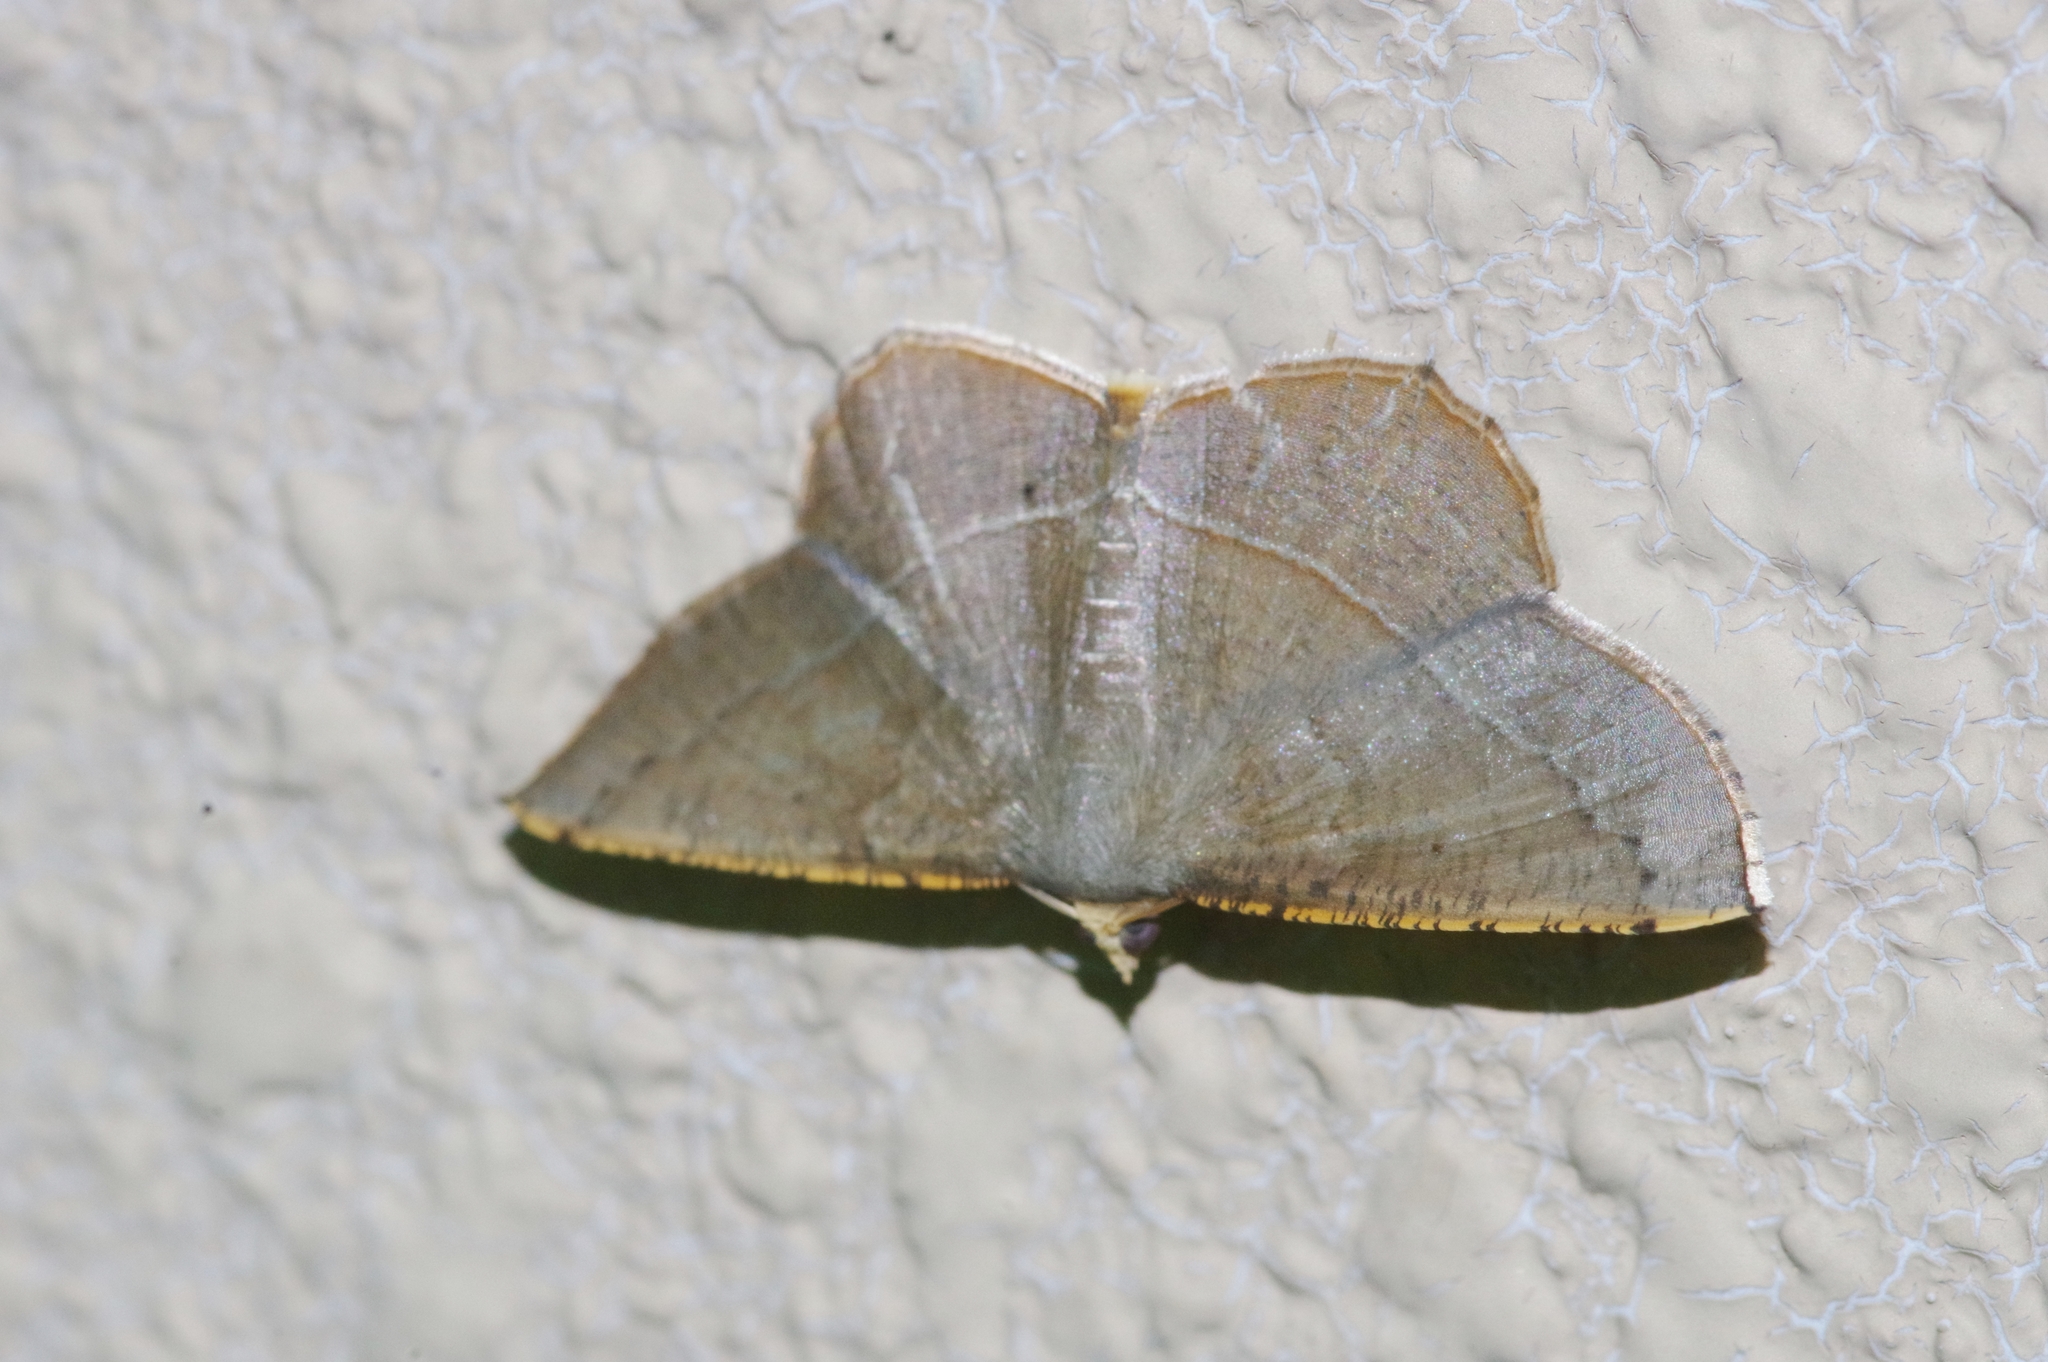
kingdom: Animalia
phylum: Arthropoda
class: Insecta
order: Lepidoptera
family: Geometridae
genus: Plesiomorpha
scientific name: Plesiomorpha flaviceps
